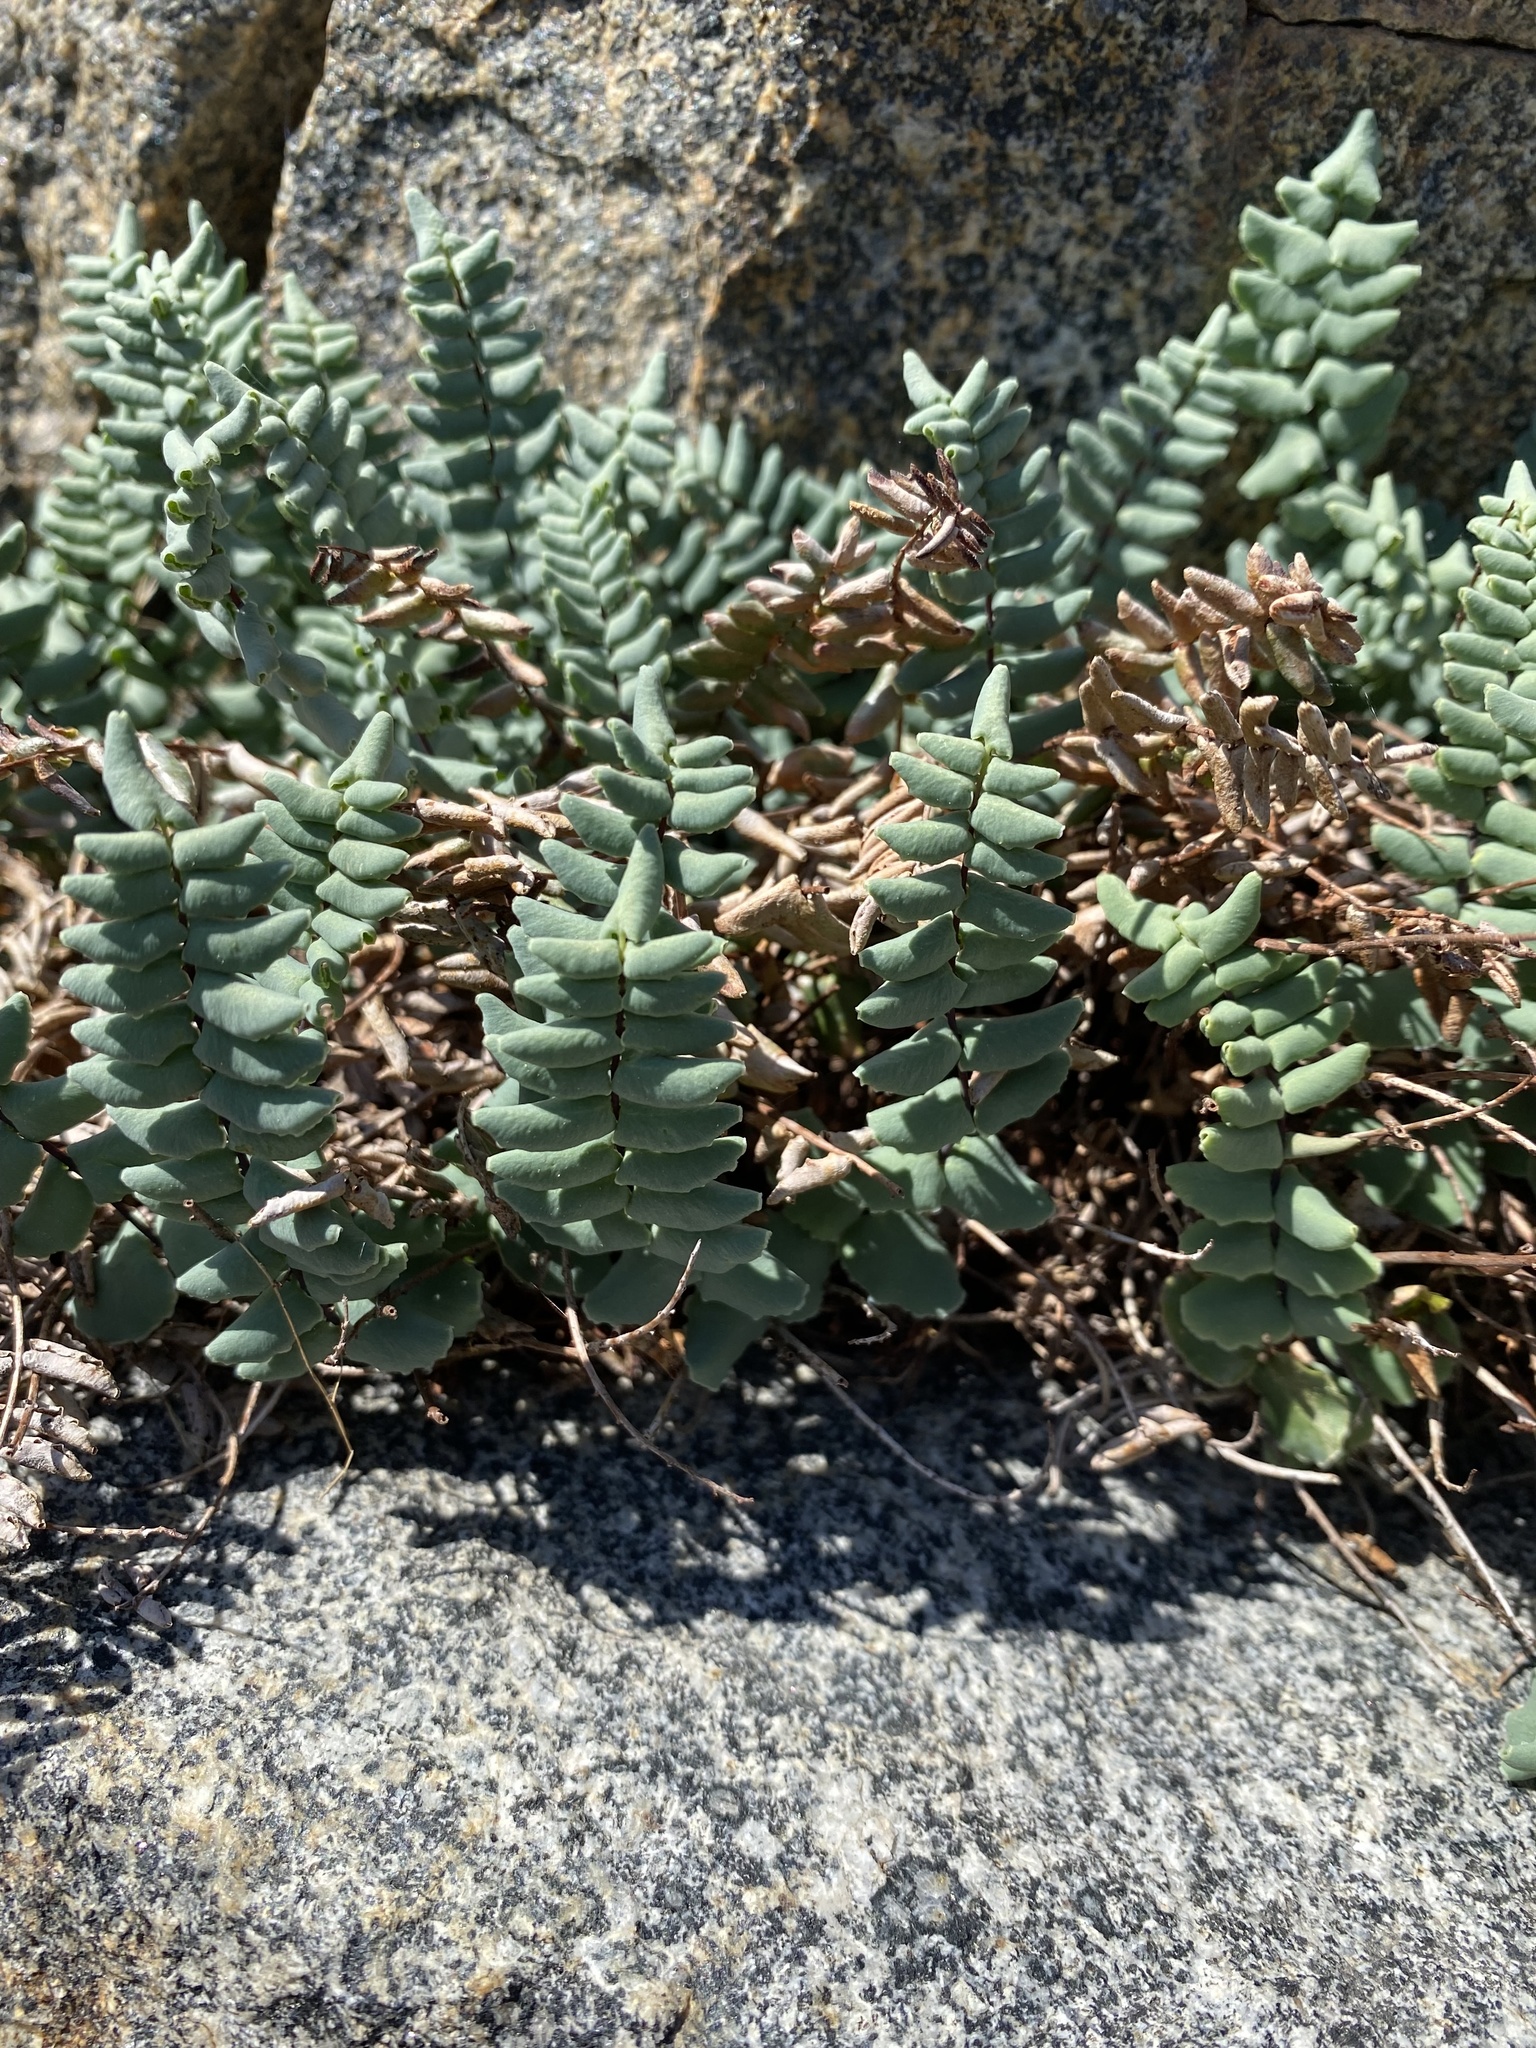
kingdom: Plantae
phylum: Tracheophyta
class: Polypodiopsida
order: Polypodiales
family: Pteridaceae
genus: Pellaea
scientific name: Pellaea bridgesii
